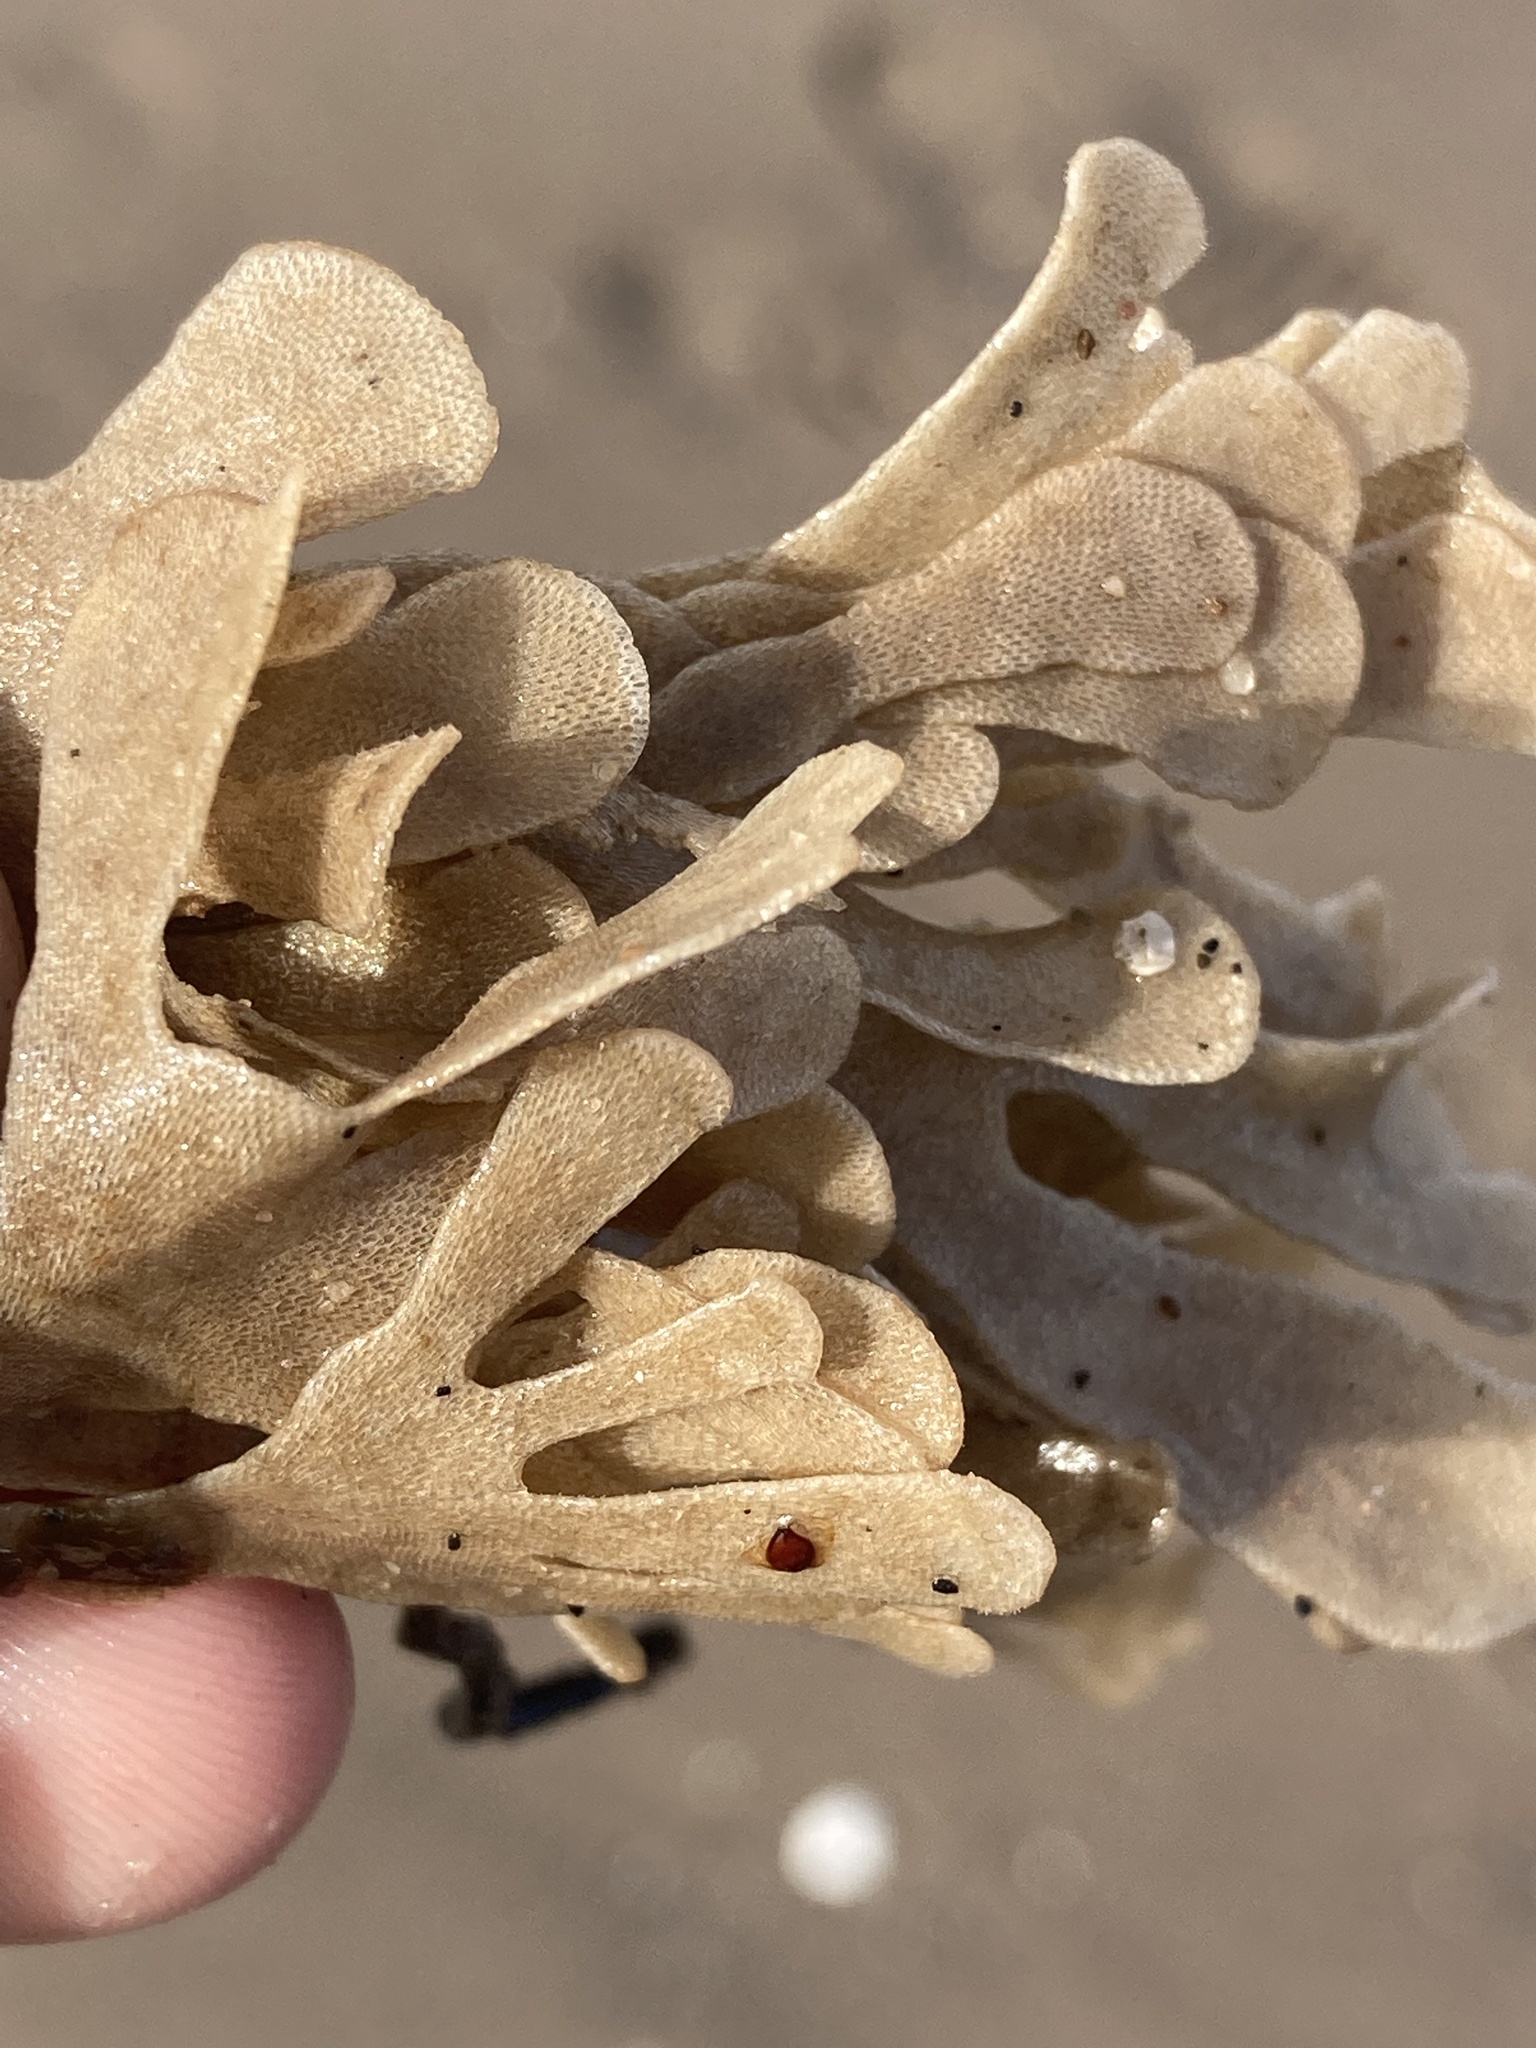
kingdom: Animalia
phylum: Bryozoa
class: Gymnolaemata
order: Cheilostomatida
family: Flustridae
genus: Flustra
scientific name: Flustra foliacea
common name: Hornwrack
